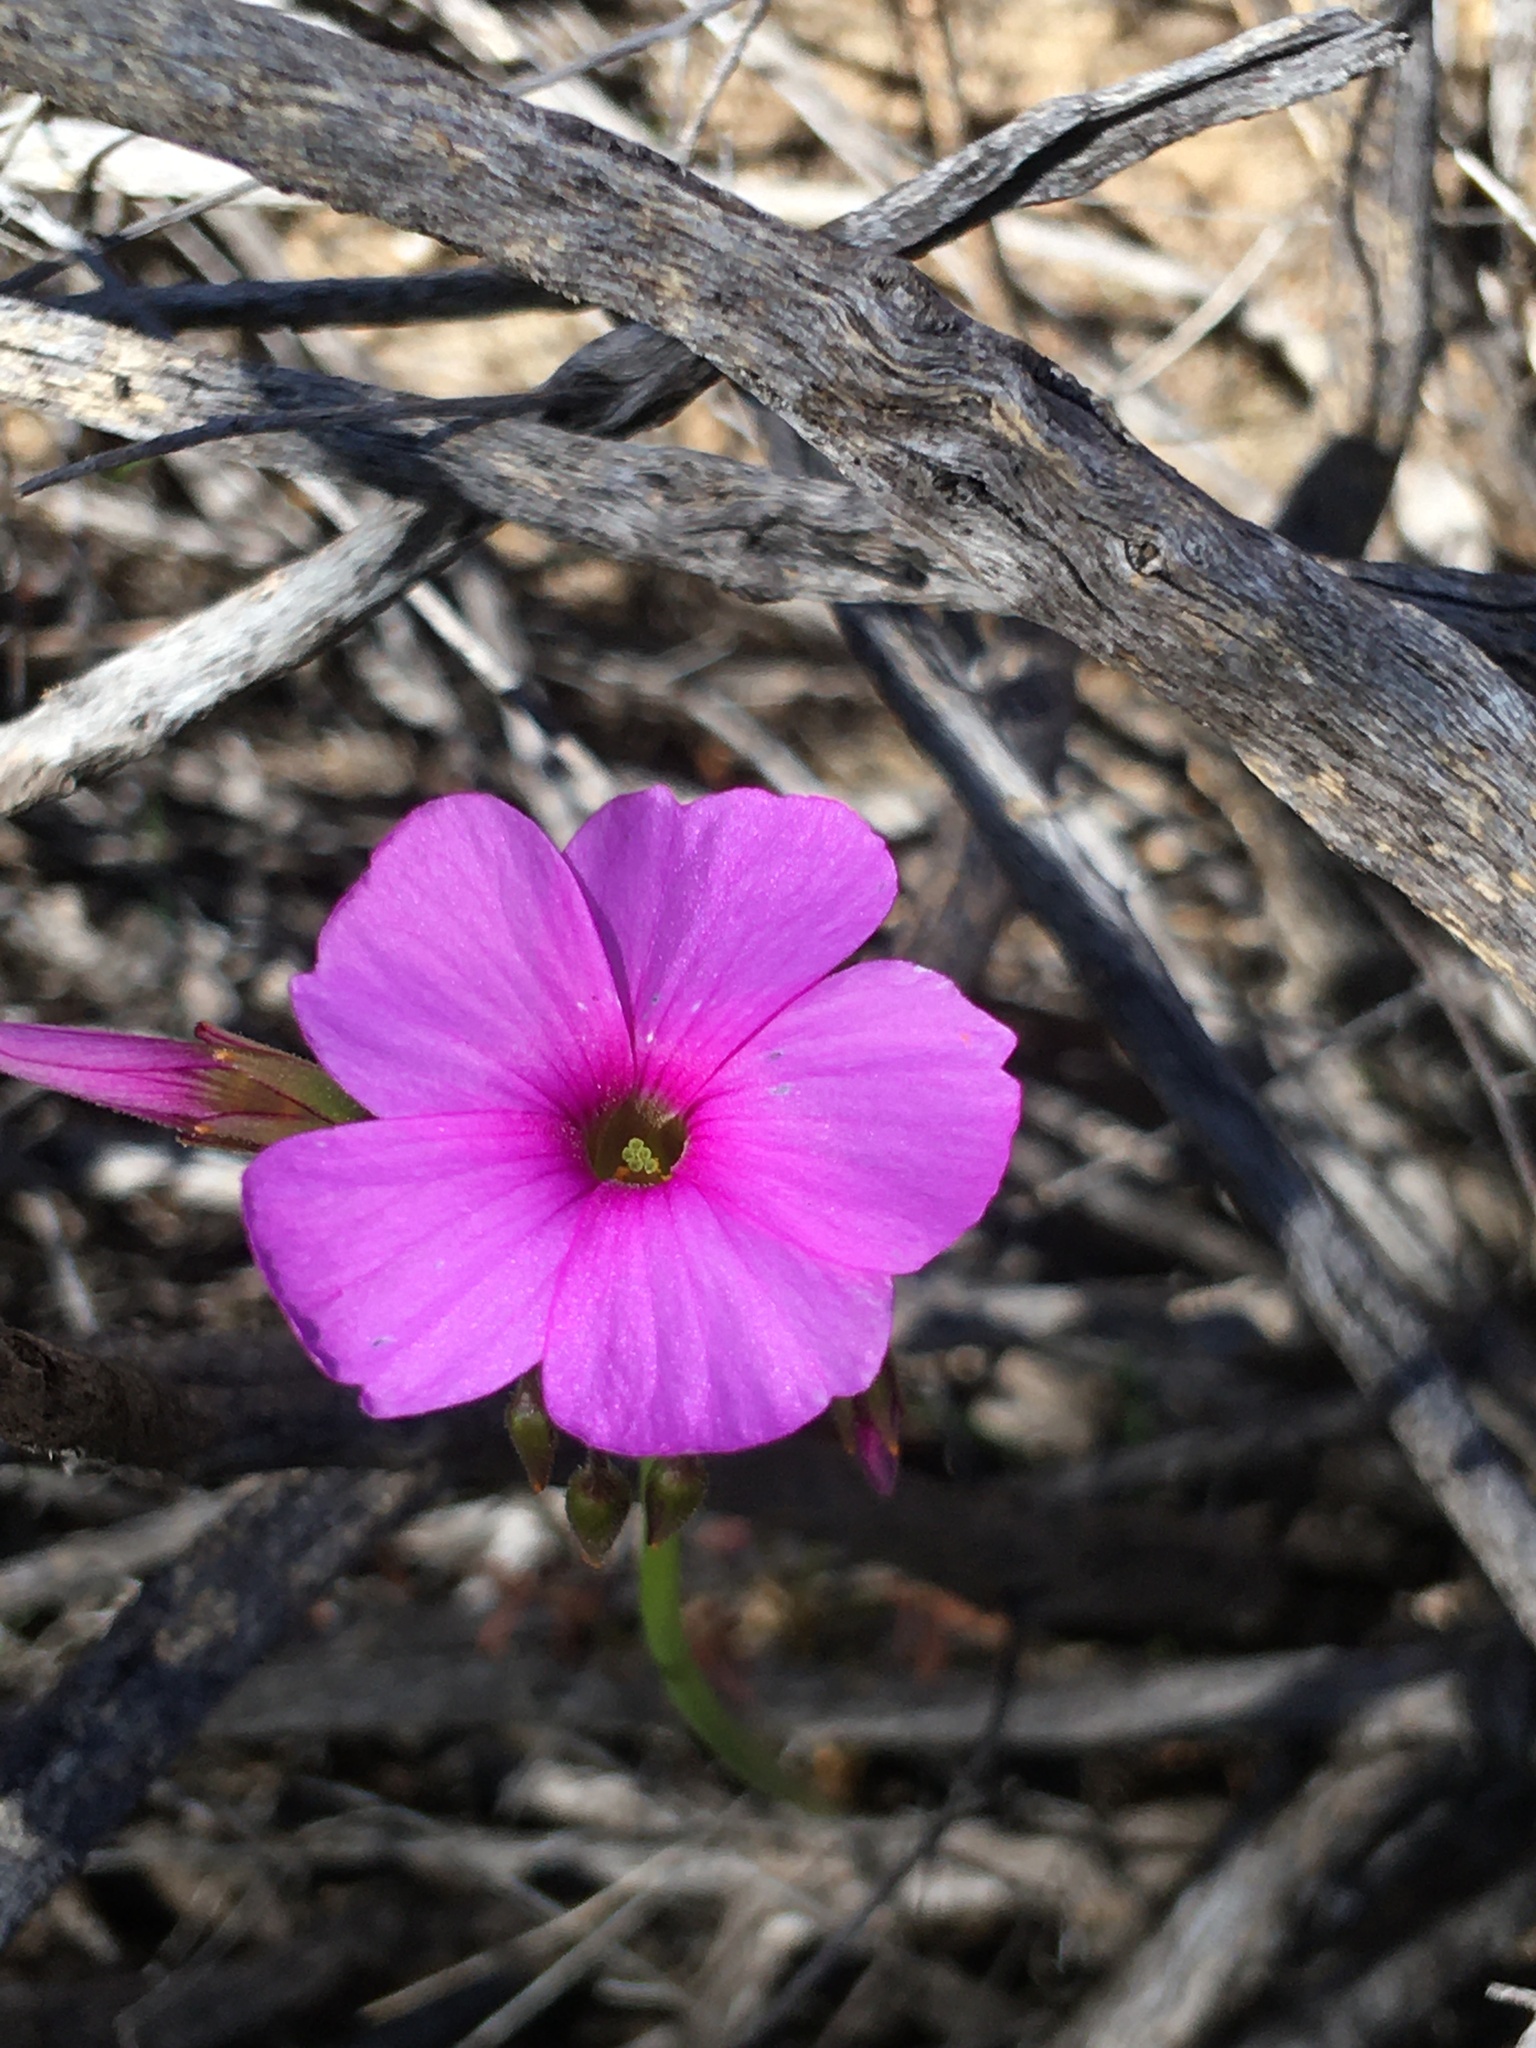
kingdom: Plantae
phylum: Tracheophyta
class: Magnoliopsida
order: Oxalidales
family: Oxalidaceae
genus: Oxalis
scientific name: Oxalis livida
